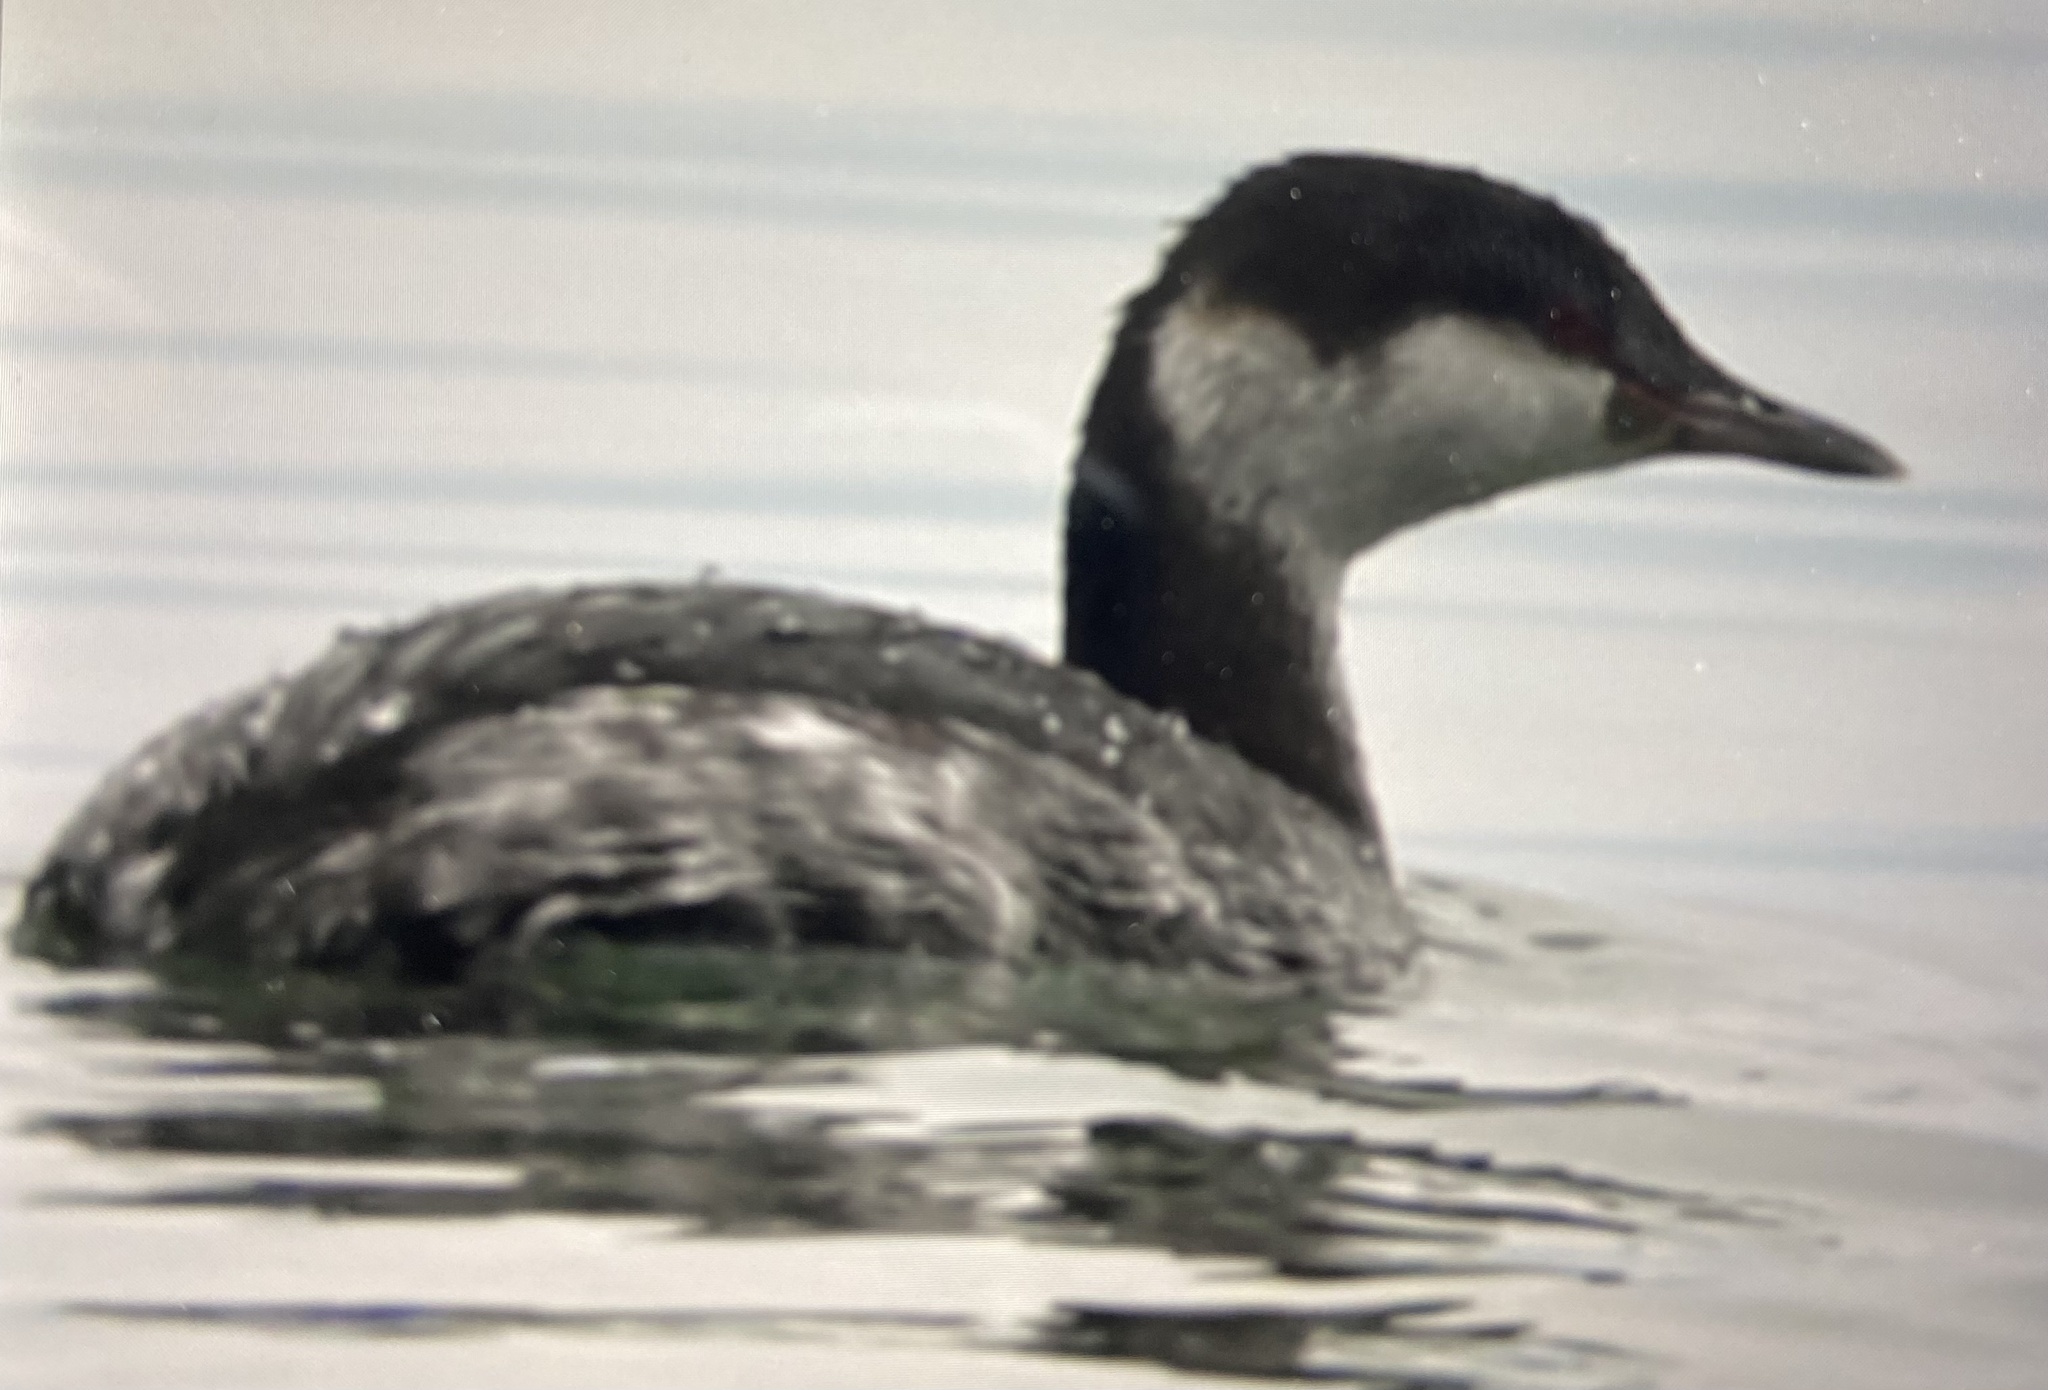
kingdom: Animalia
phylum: Chordata
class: Aves
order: Podicipediformes
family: Podicipedidae
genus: Podiceps
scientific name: Podiceps auritus
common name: Horned grebe
